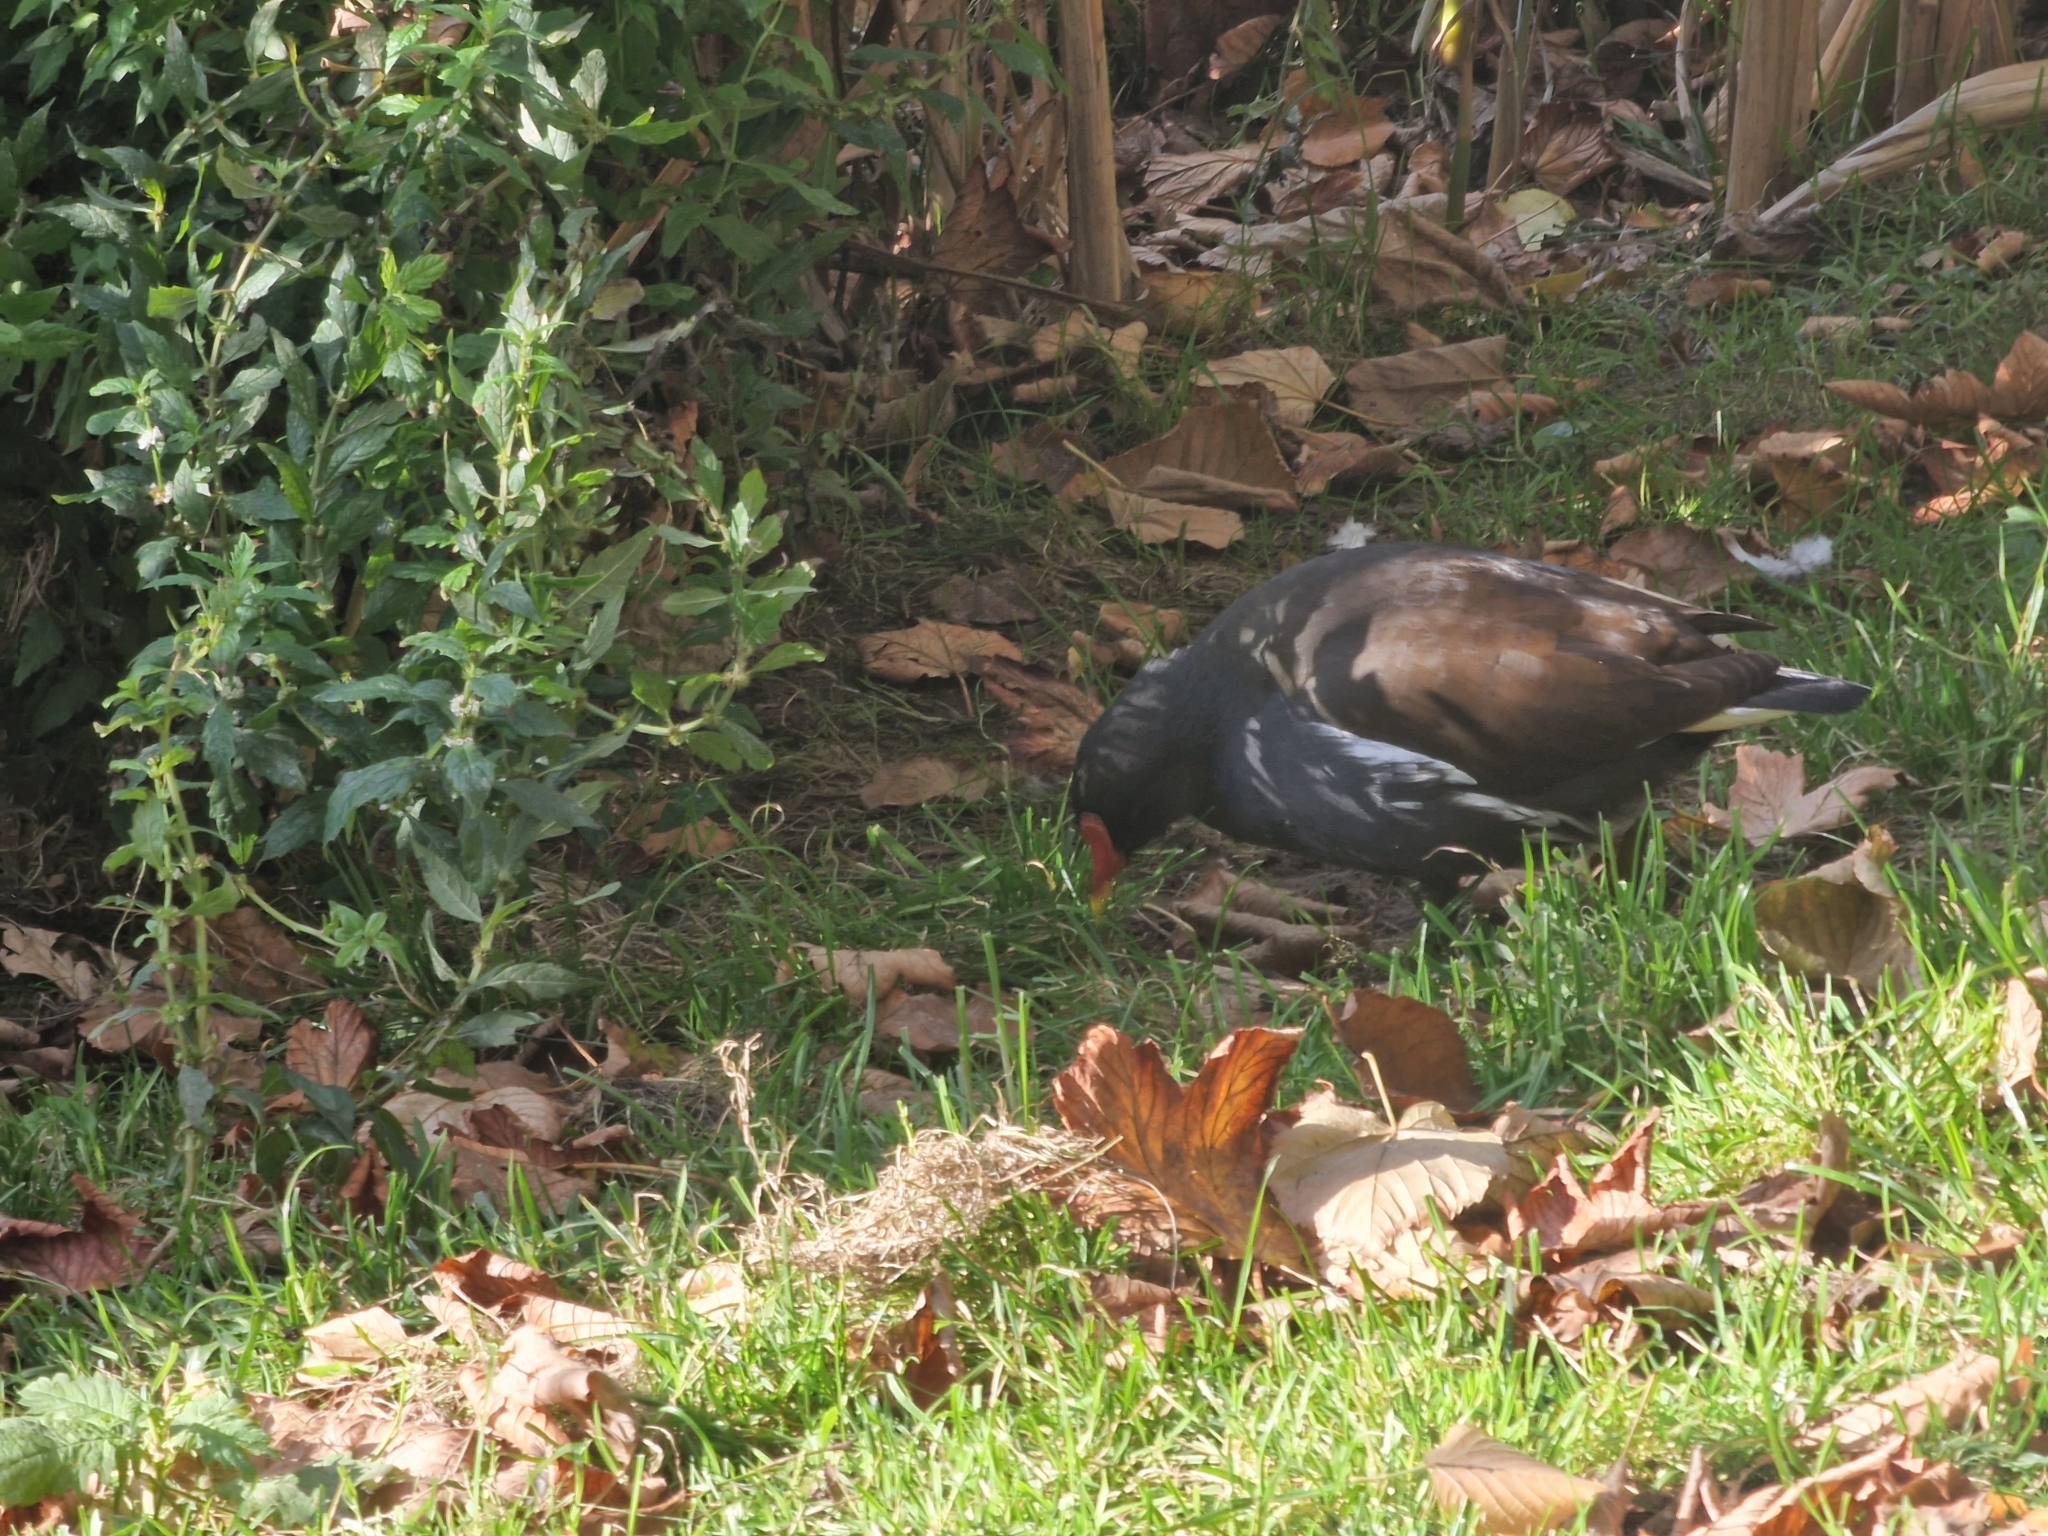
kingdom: Animalia
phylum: Chordata
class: Aves
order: Gruiformes
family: Rallidae
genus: Gallinula
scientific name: Gallinula chloropus
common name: Common moorhen
